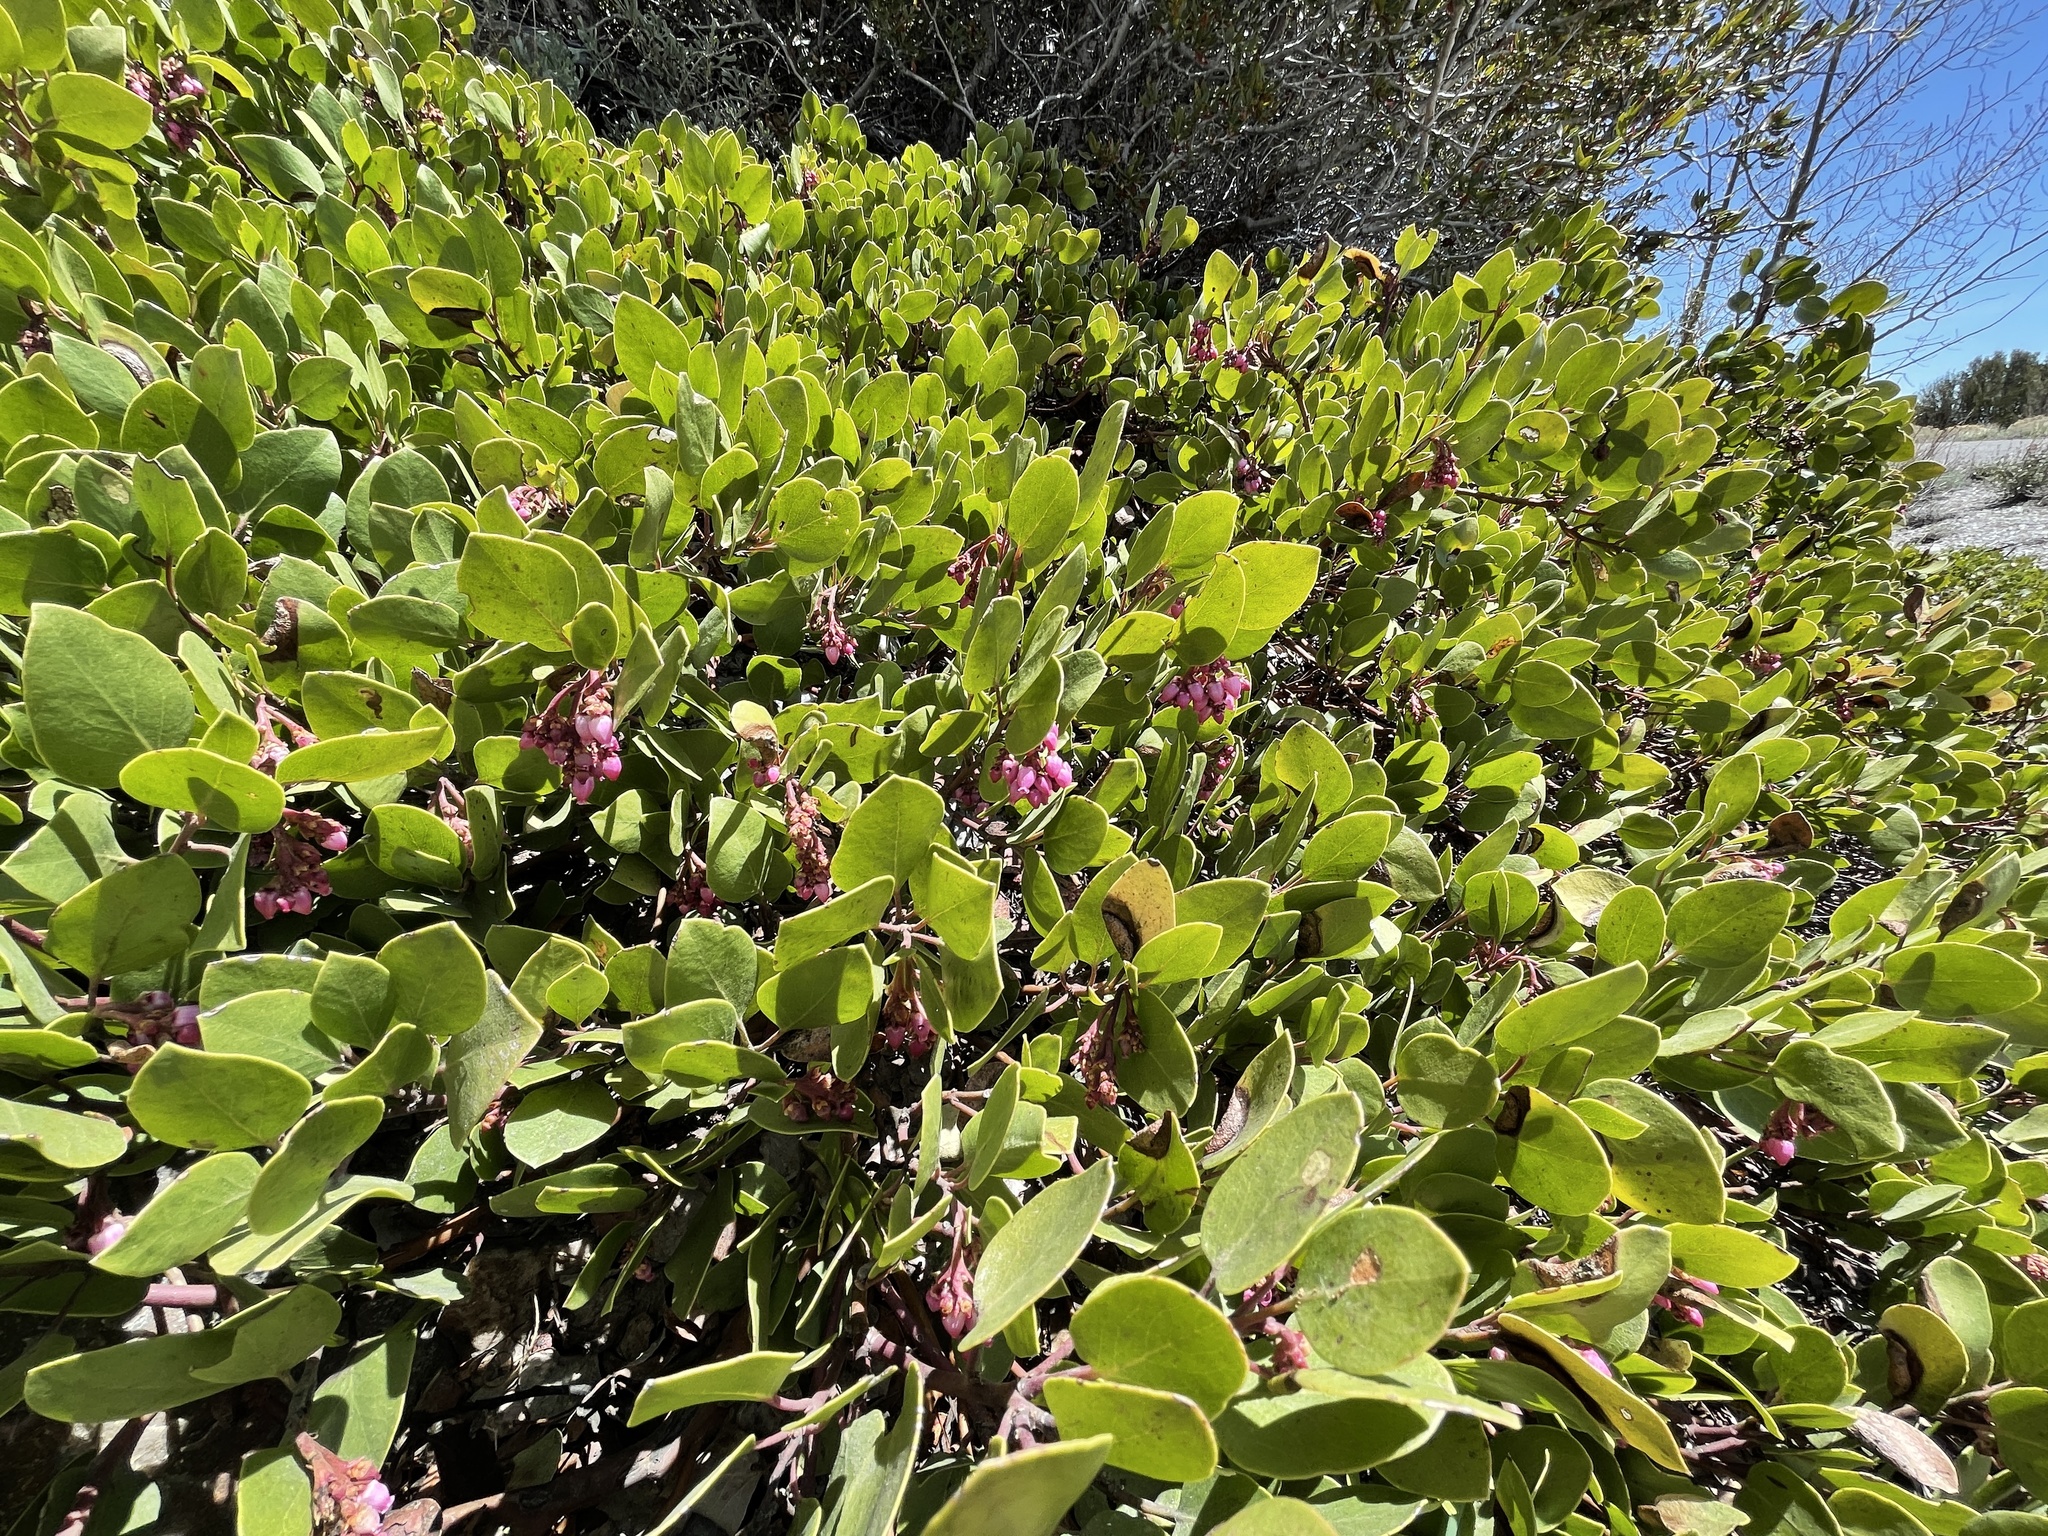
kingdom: Plantae
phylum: Tracheophyta
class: Magnoliopsida
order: Ericales
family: Ericaceae
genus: Arctostaphylos
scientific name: Arctostaphylos patula
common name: Green-leaf manzanita
